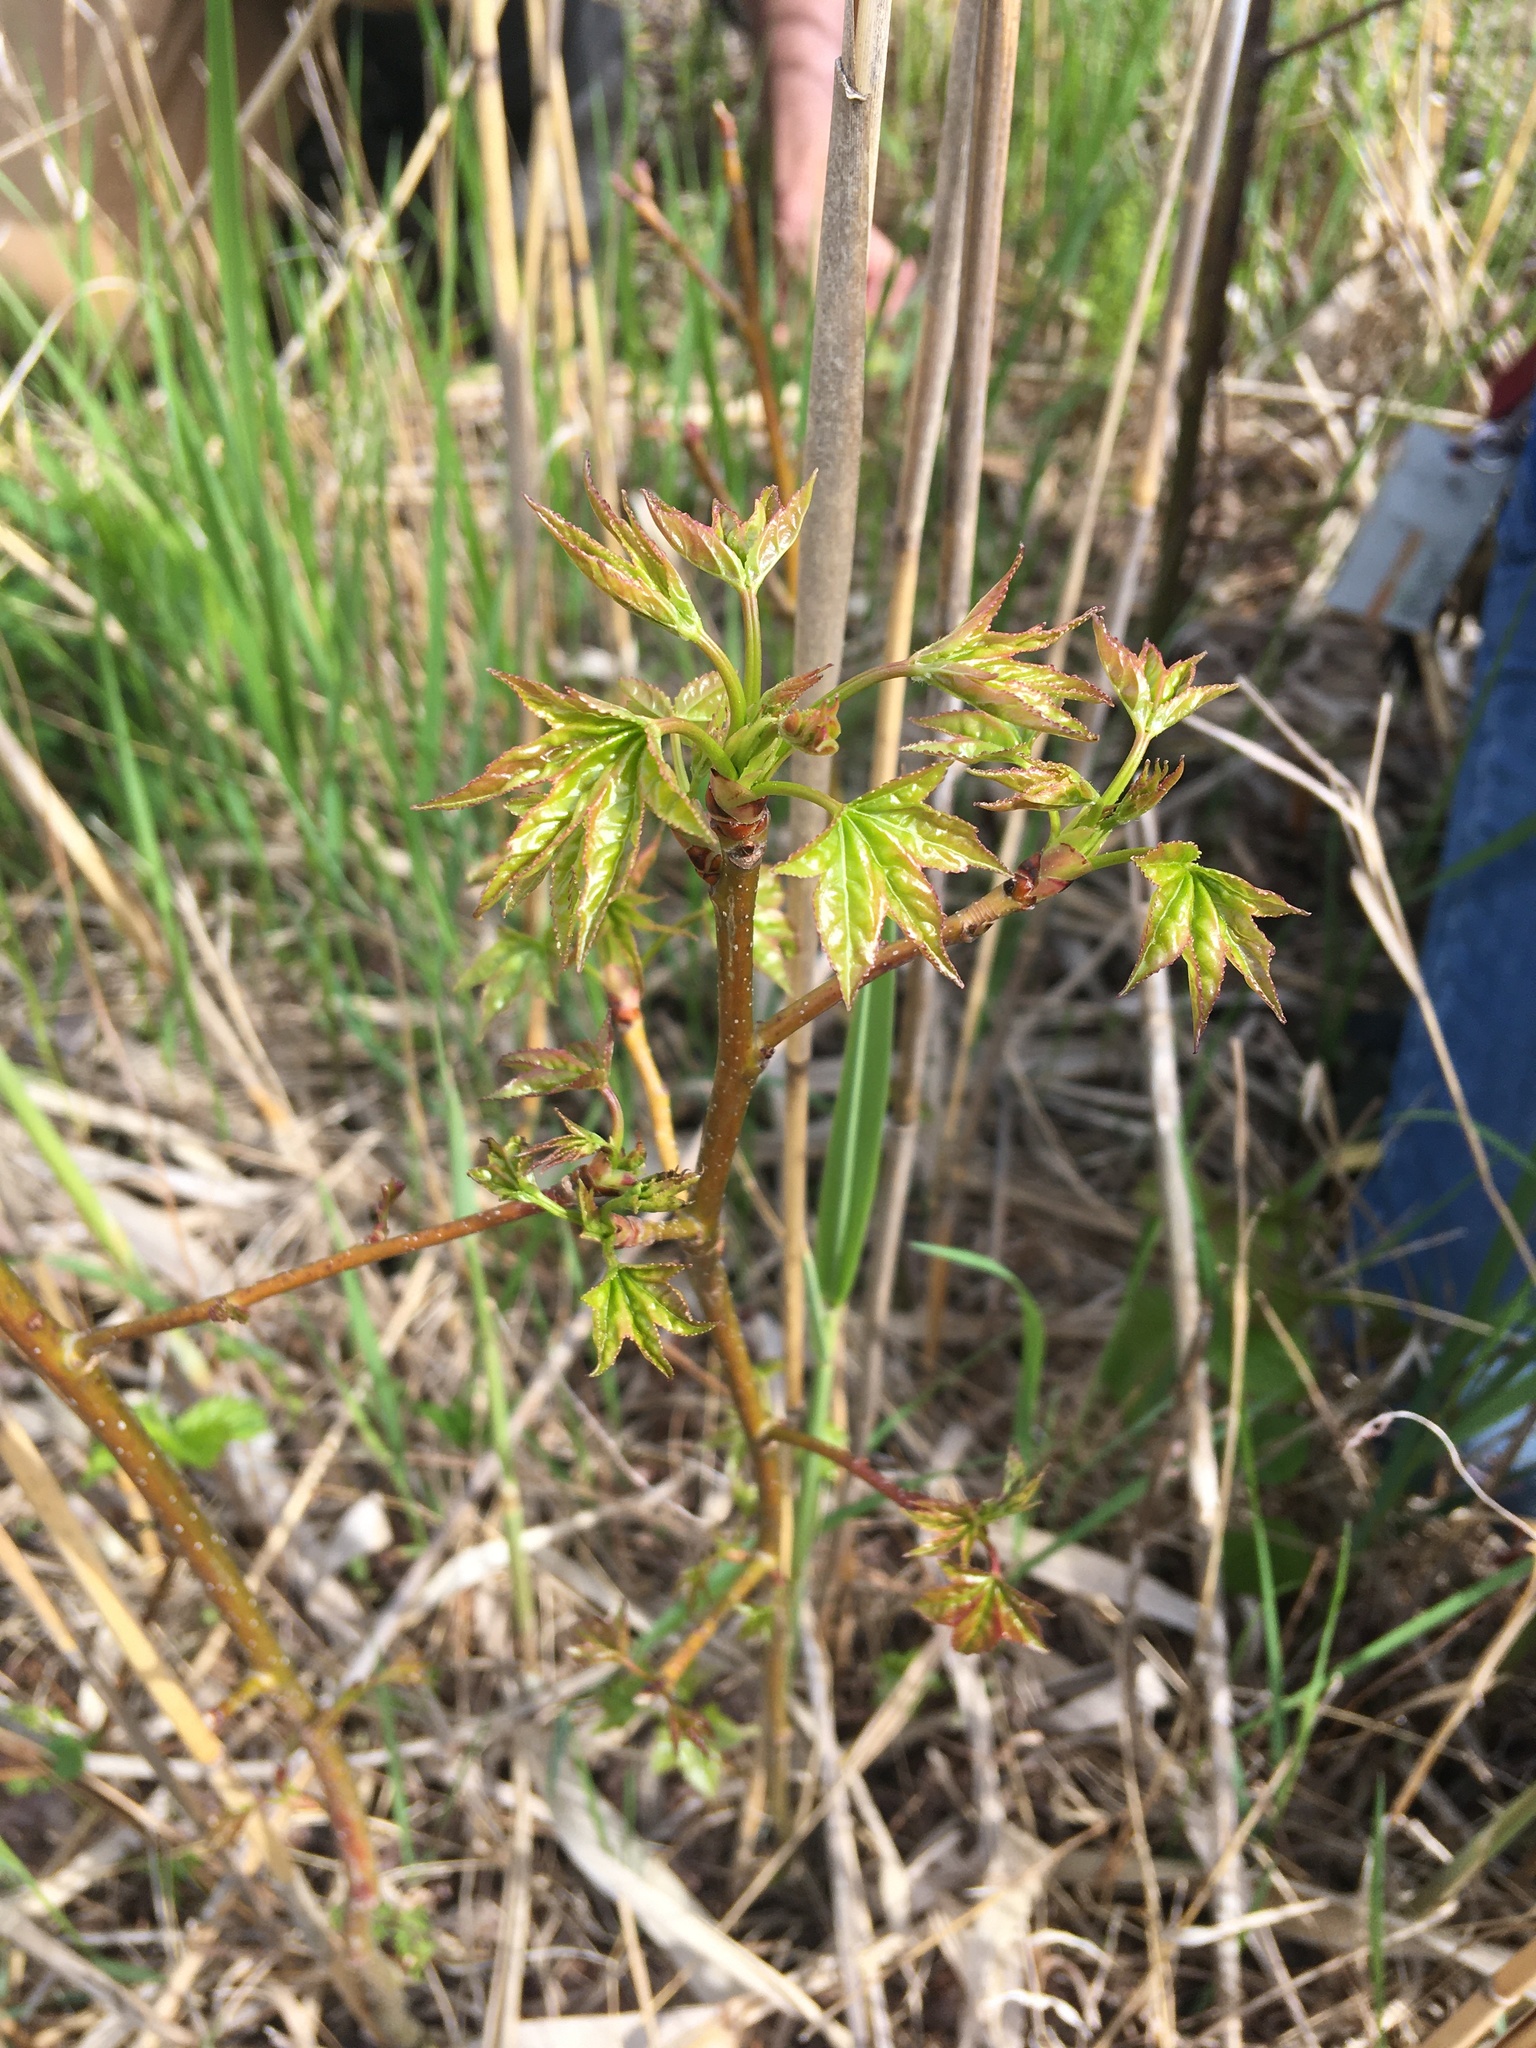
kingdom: Plantae
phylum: Tracheophyta
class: Magnoliopsida
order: Saxifragales
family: Altingiaceae
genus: Liquidambar
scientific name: Liquidambar styraciflua
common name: Sweet gum
